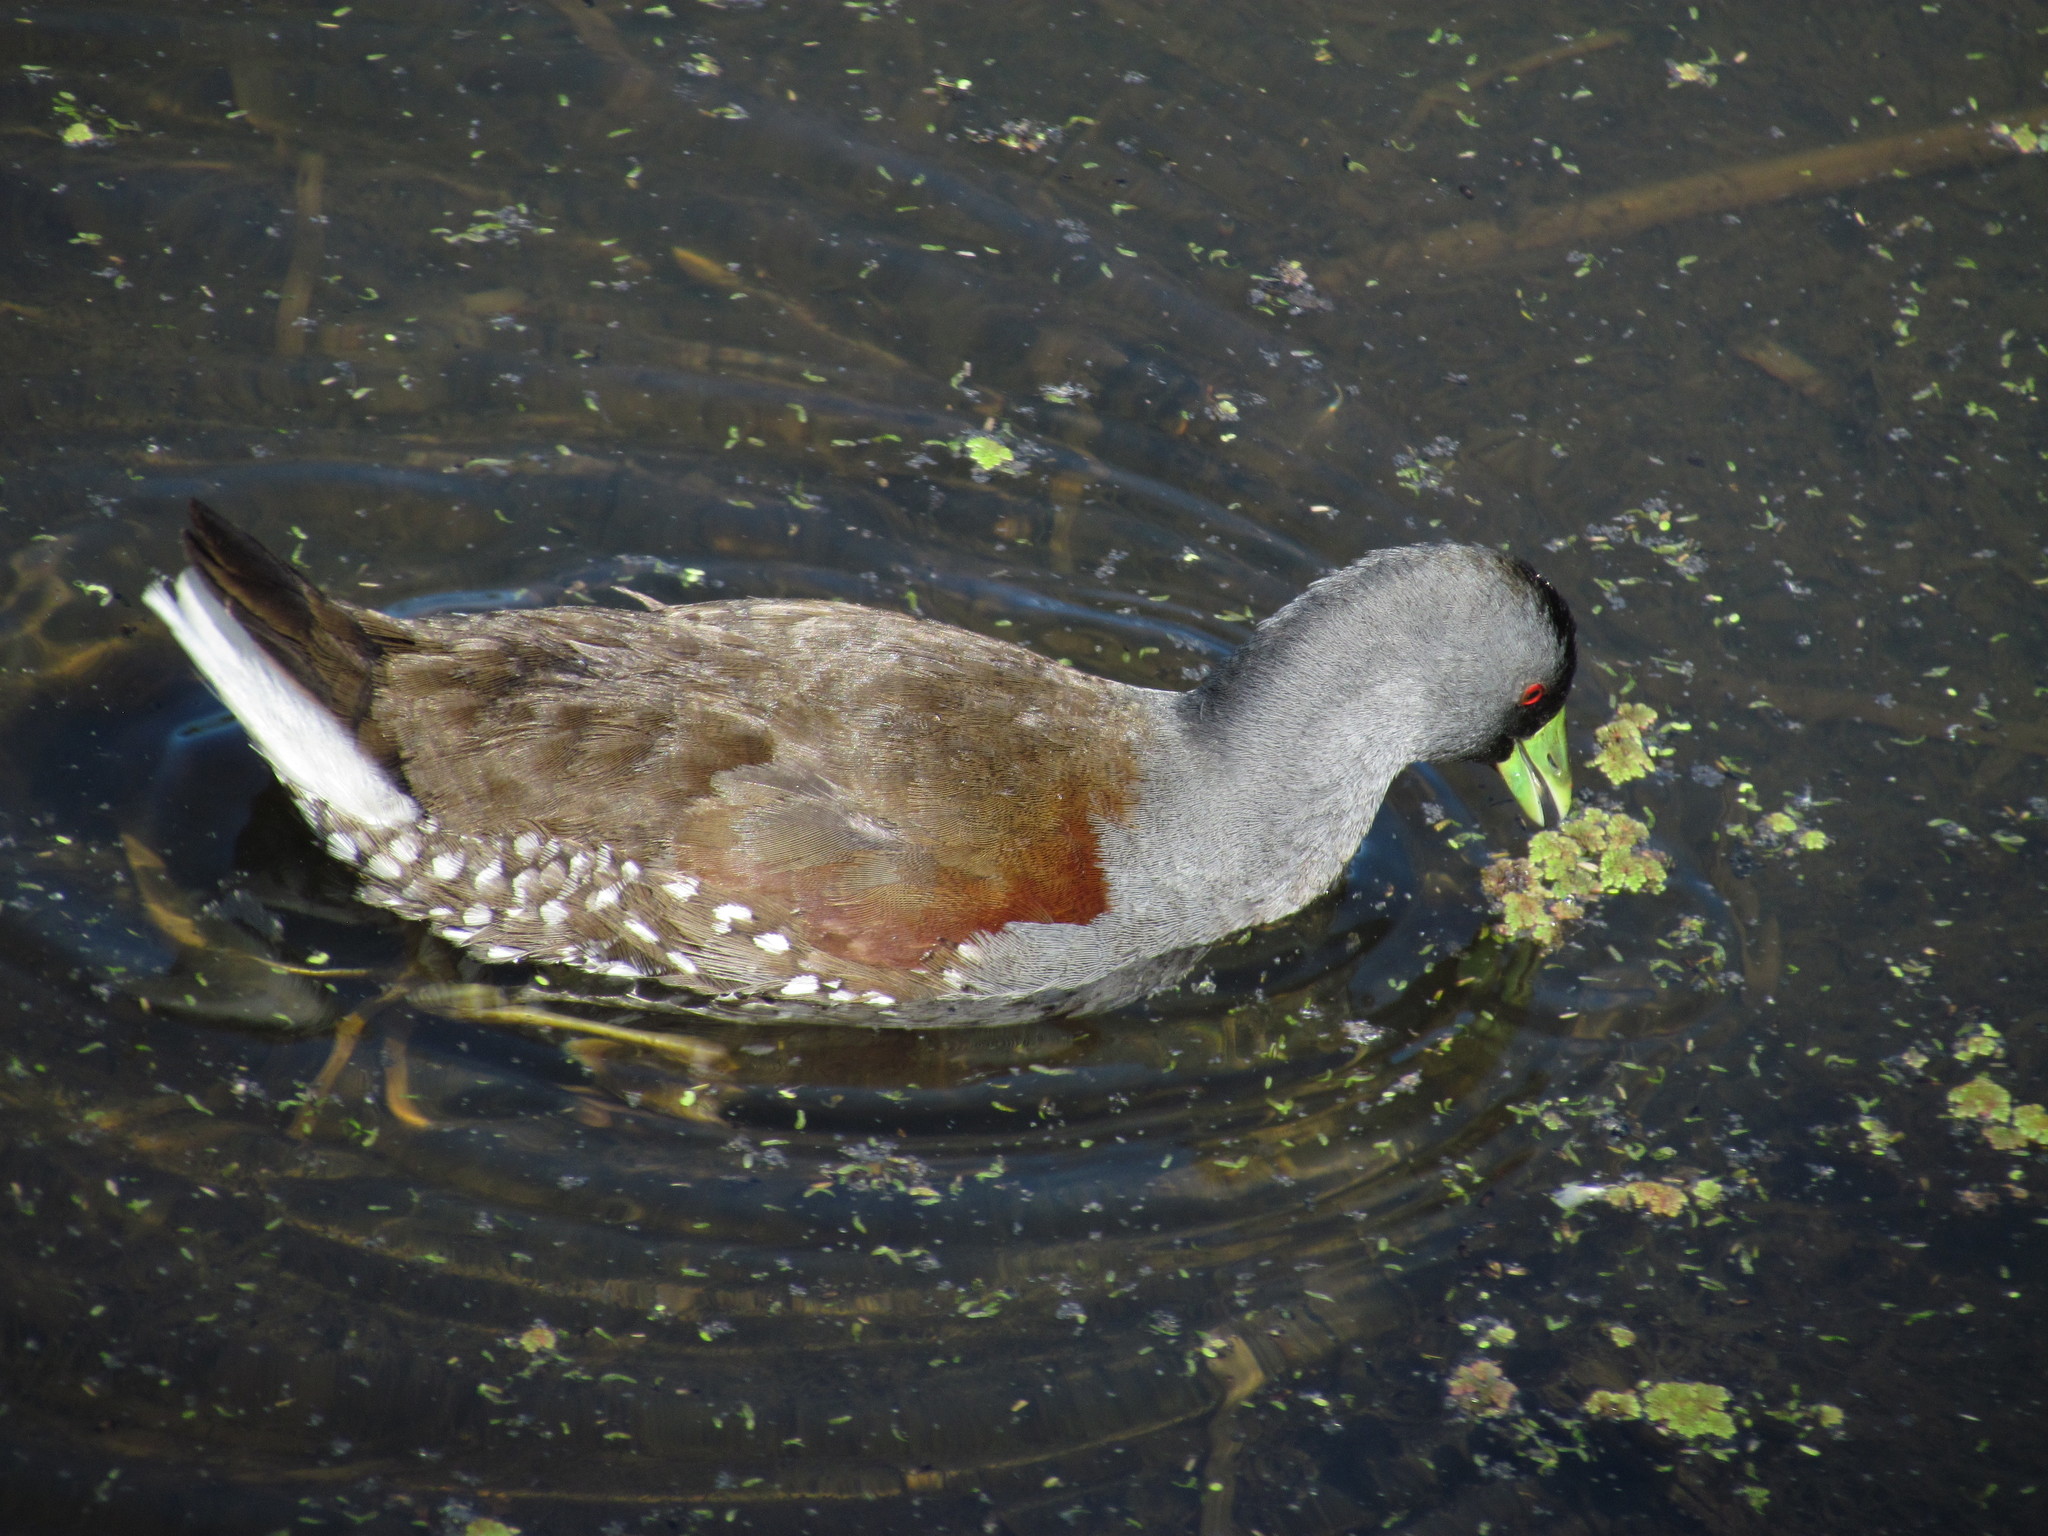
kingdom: Animalia
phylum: Chordata
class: Aves
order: Gruiformes
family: Rallidae
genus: Gallinula
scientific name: Gallinula melanops
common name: Spot-flanked gallinule
